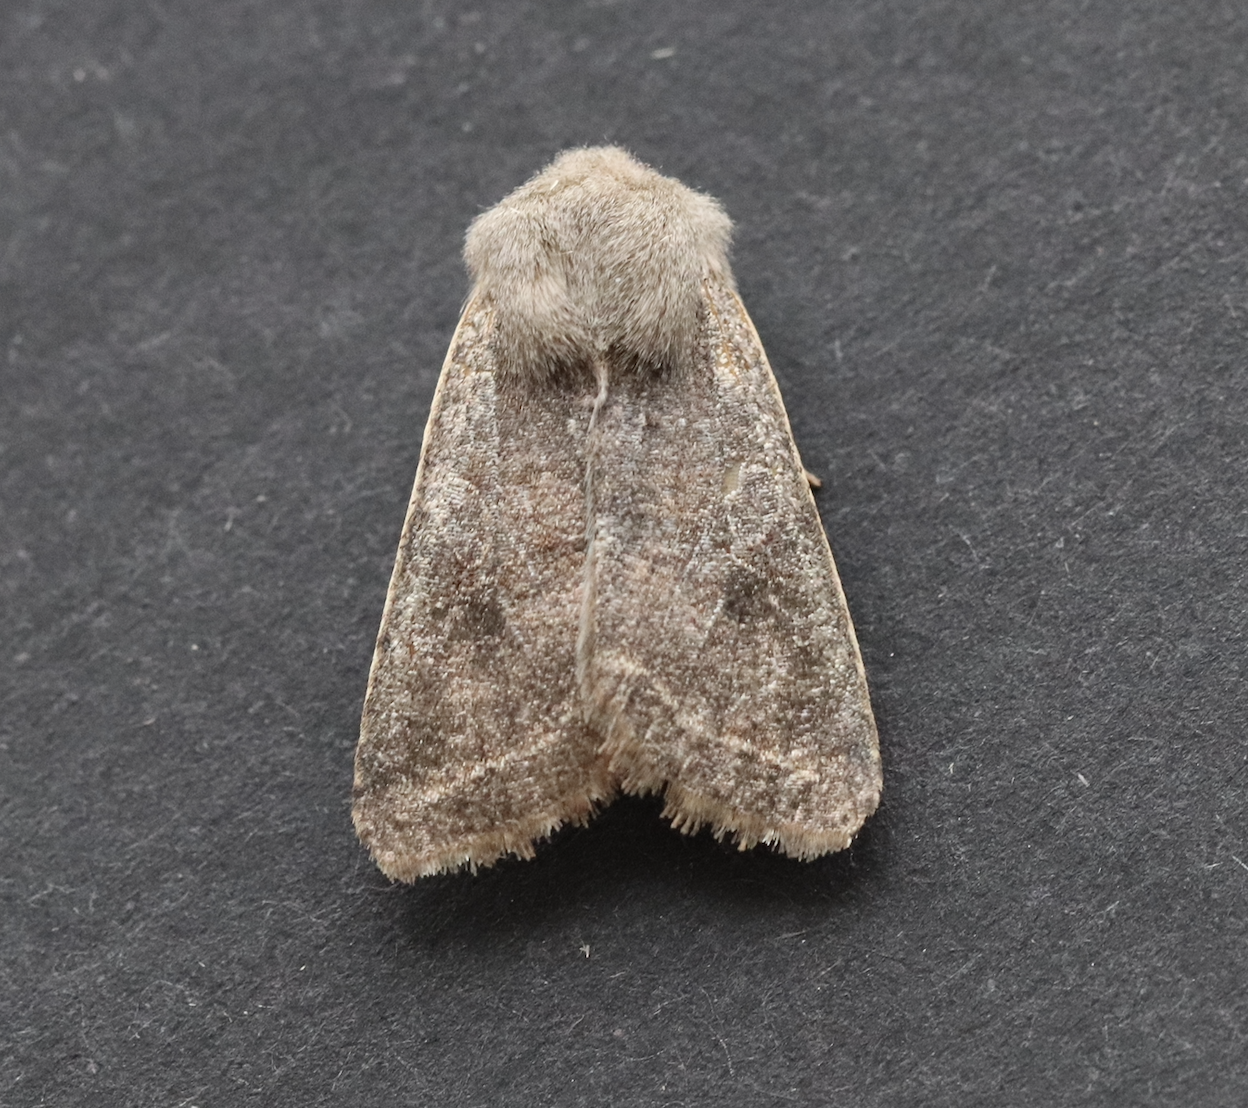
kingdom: Animalia
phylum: Arthropoda
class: Insecta
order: Lepidoptera
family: Noctuidae
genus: Orthosia
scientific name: Orthosia incerta
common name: Clouded drab
